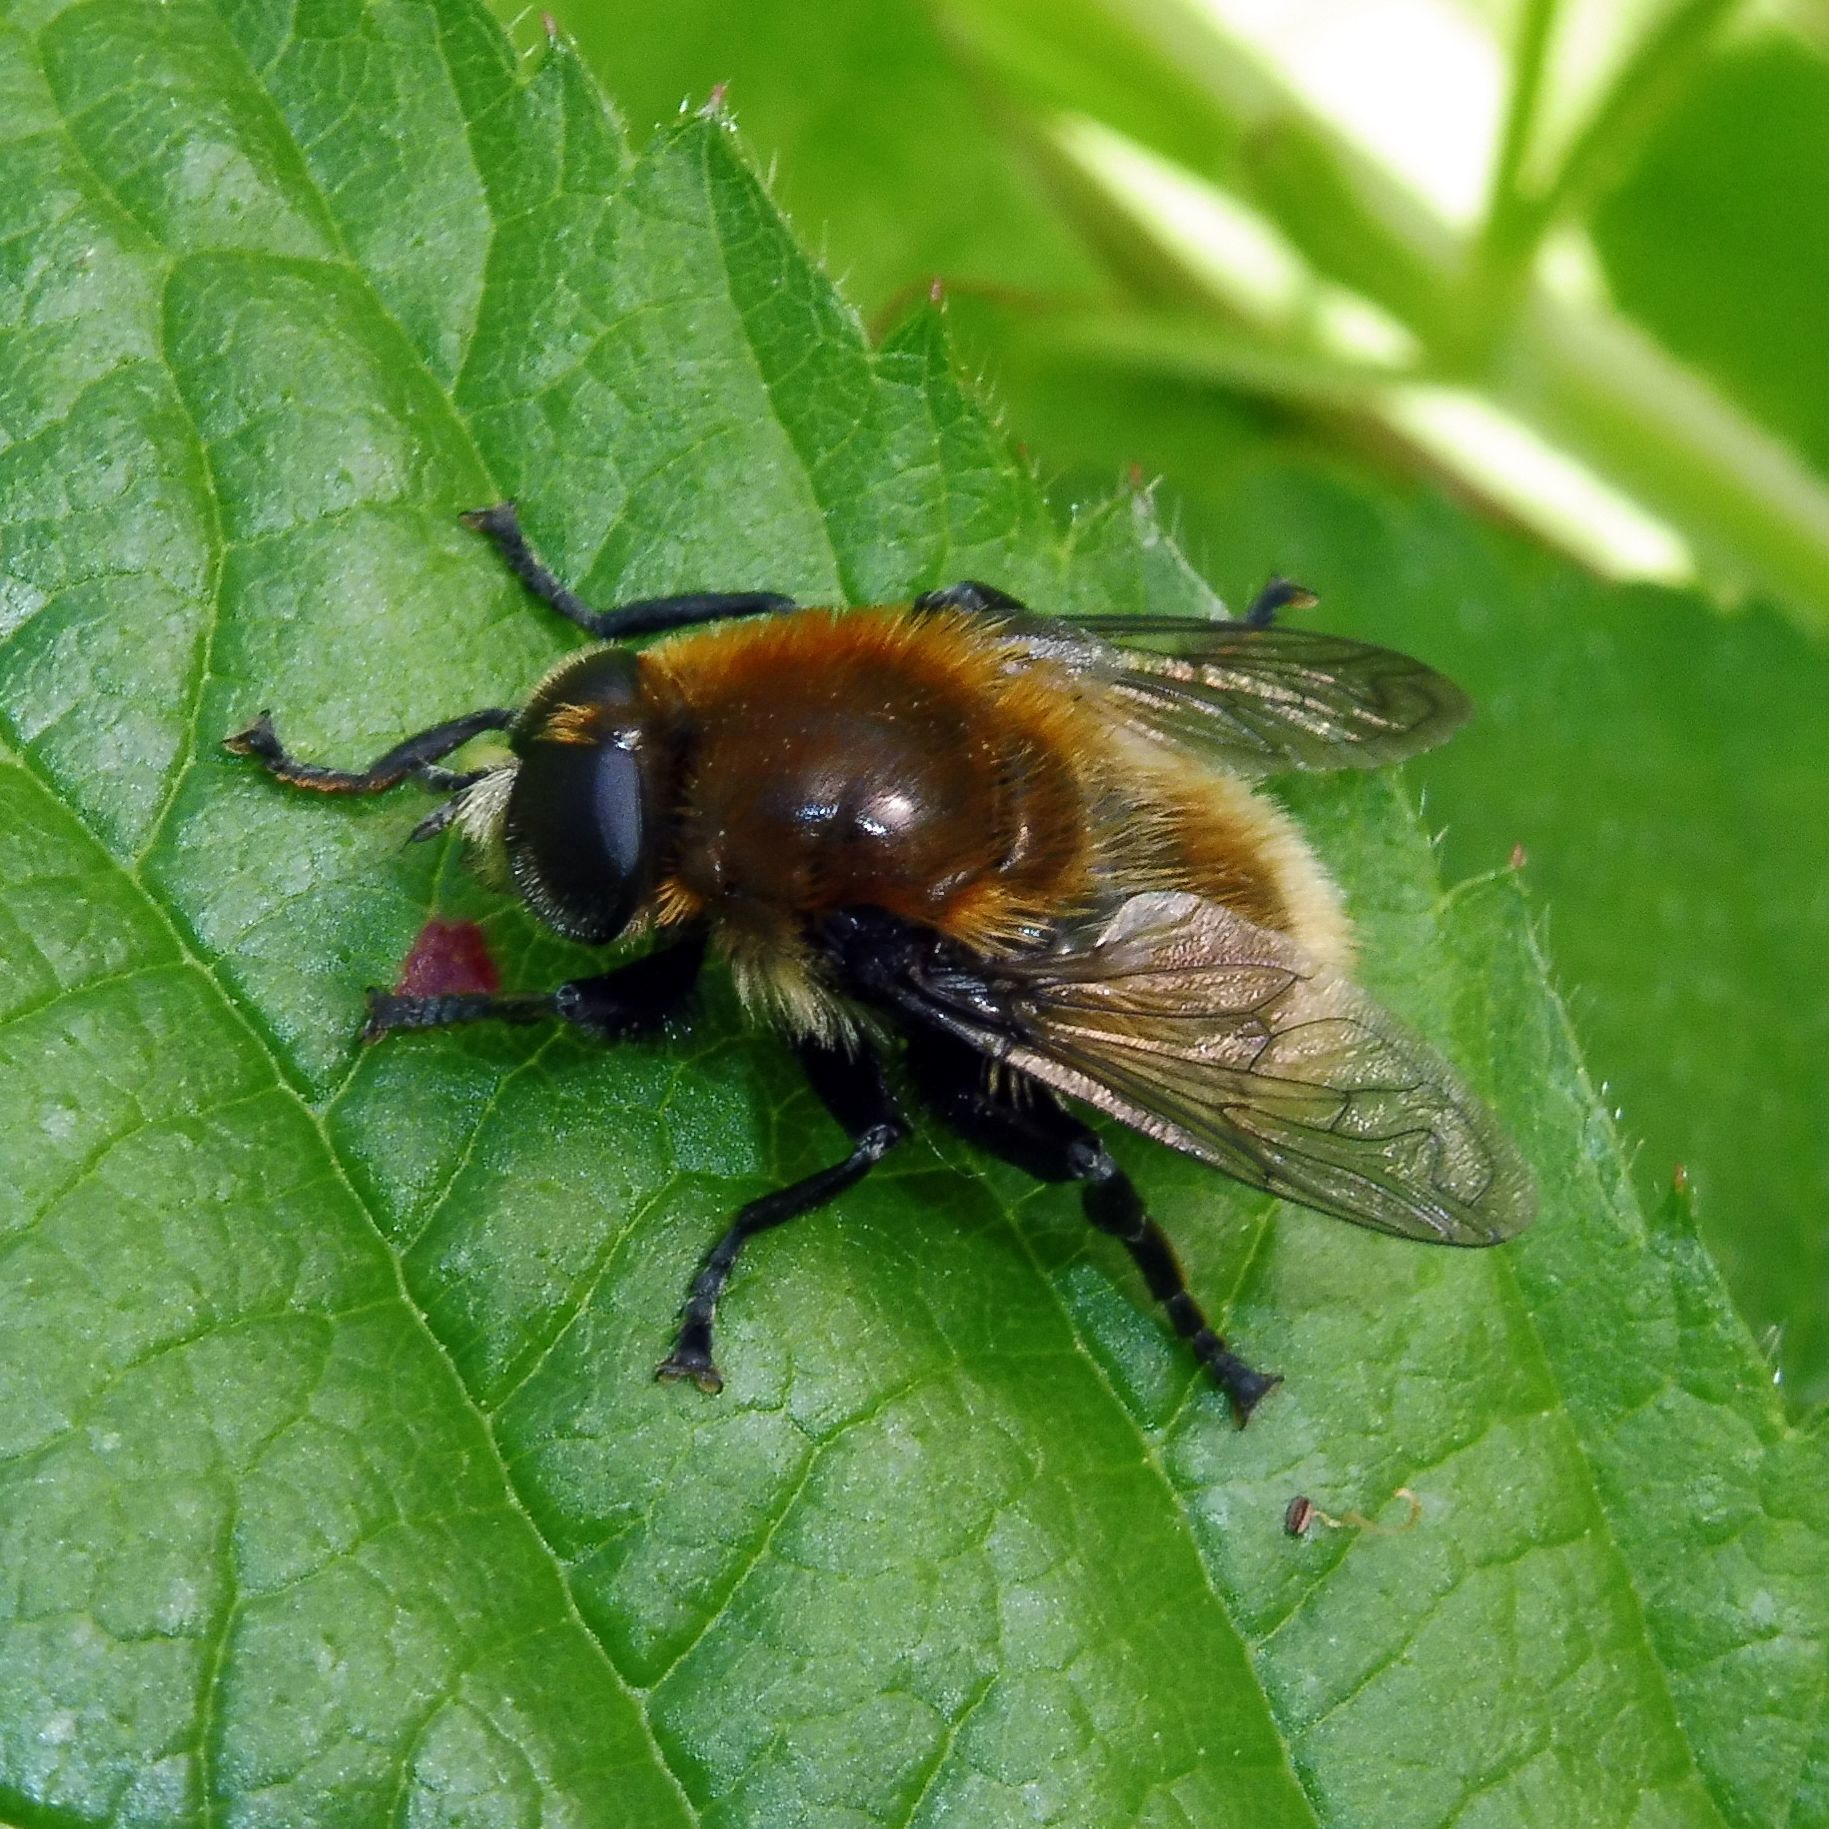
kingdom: Animalia
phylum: Arthropoda
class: Insecta
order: Diptera
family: Syrphidae
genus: Merodon
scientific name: Merodon equestris
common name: Greater bulb-fly
